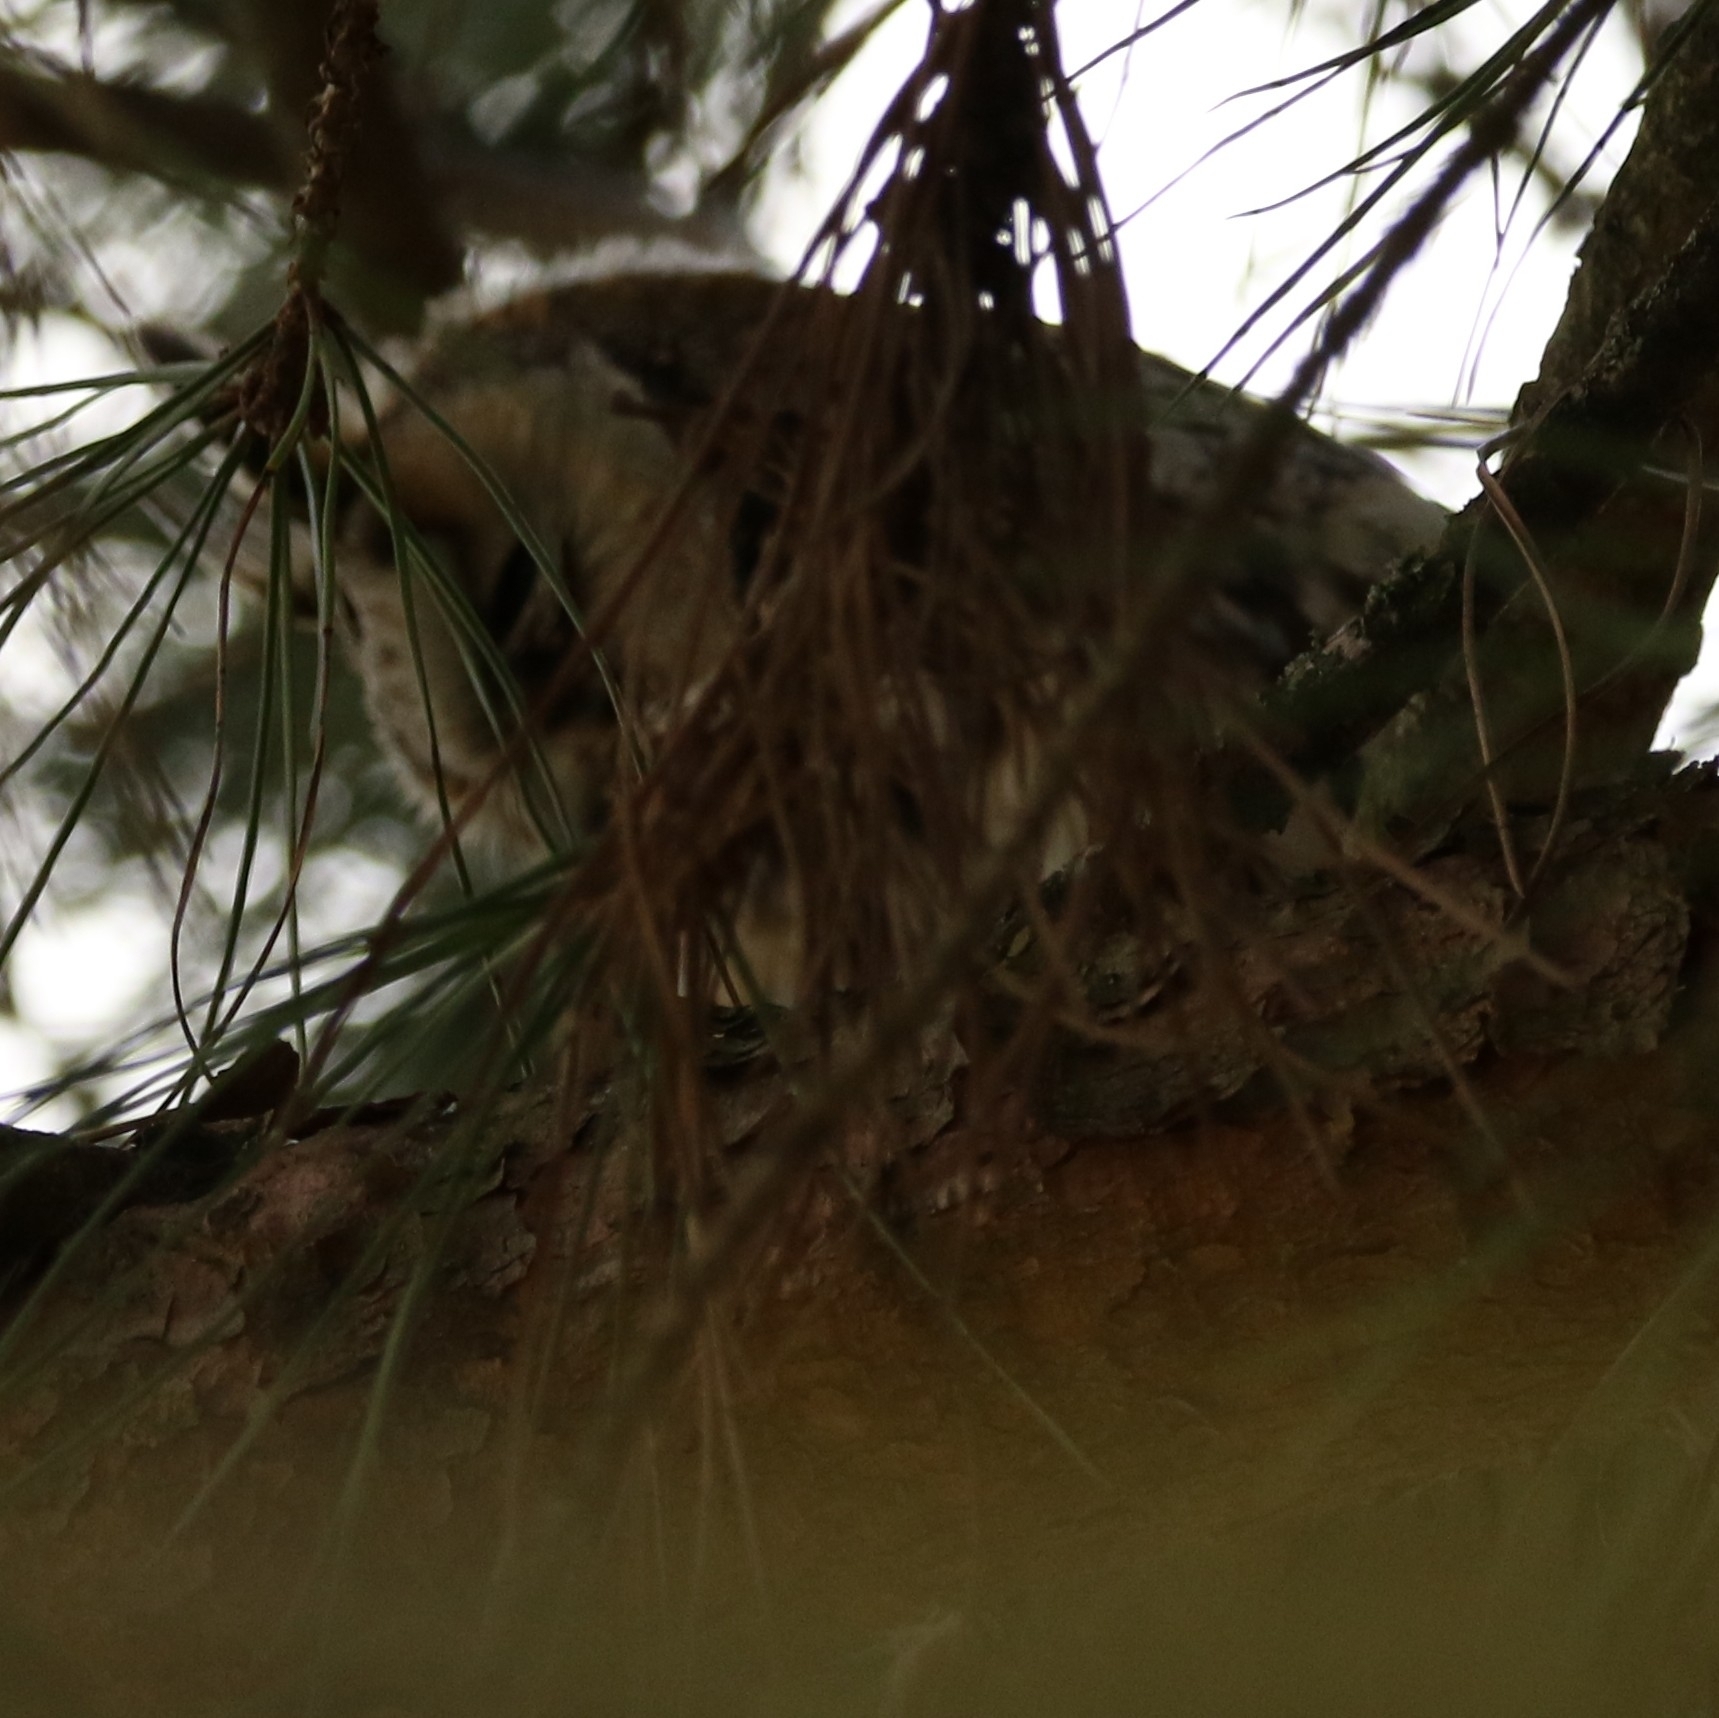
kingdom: Animalia
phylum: Chordata
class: Aves
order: Strigiformes
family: Strigidae
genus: Asio
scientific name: Asio otus
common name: Long-eared owl
